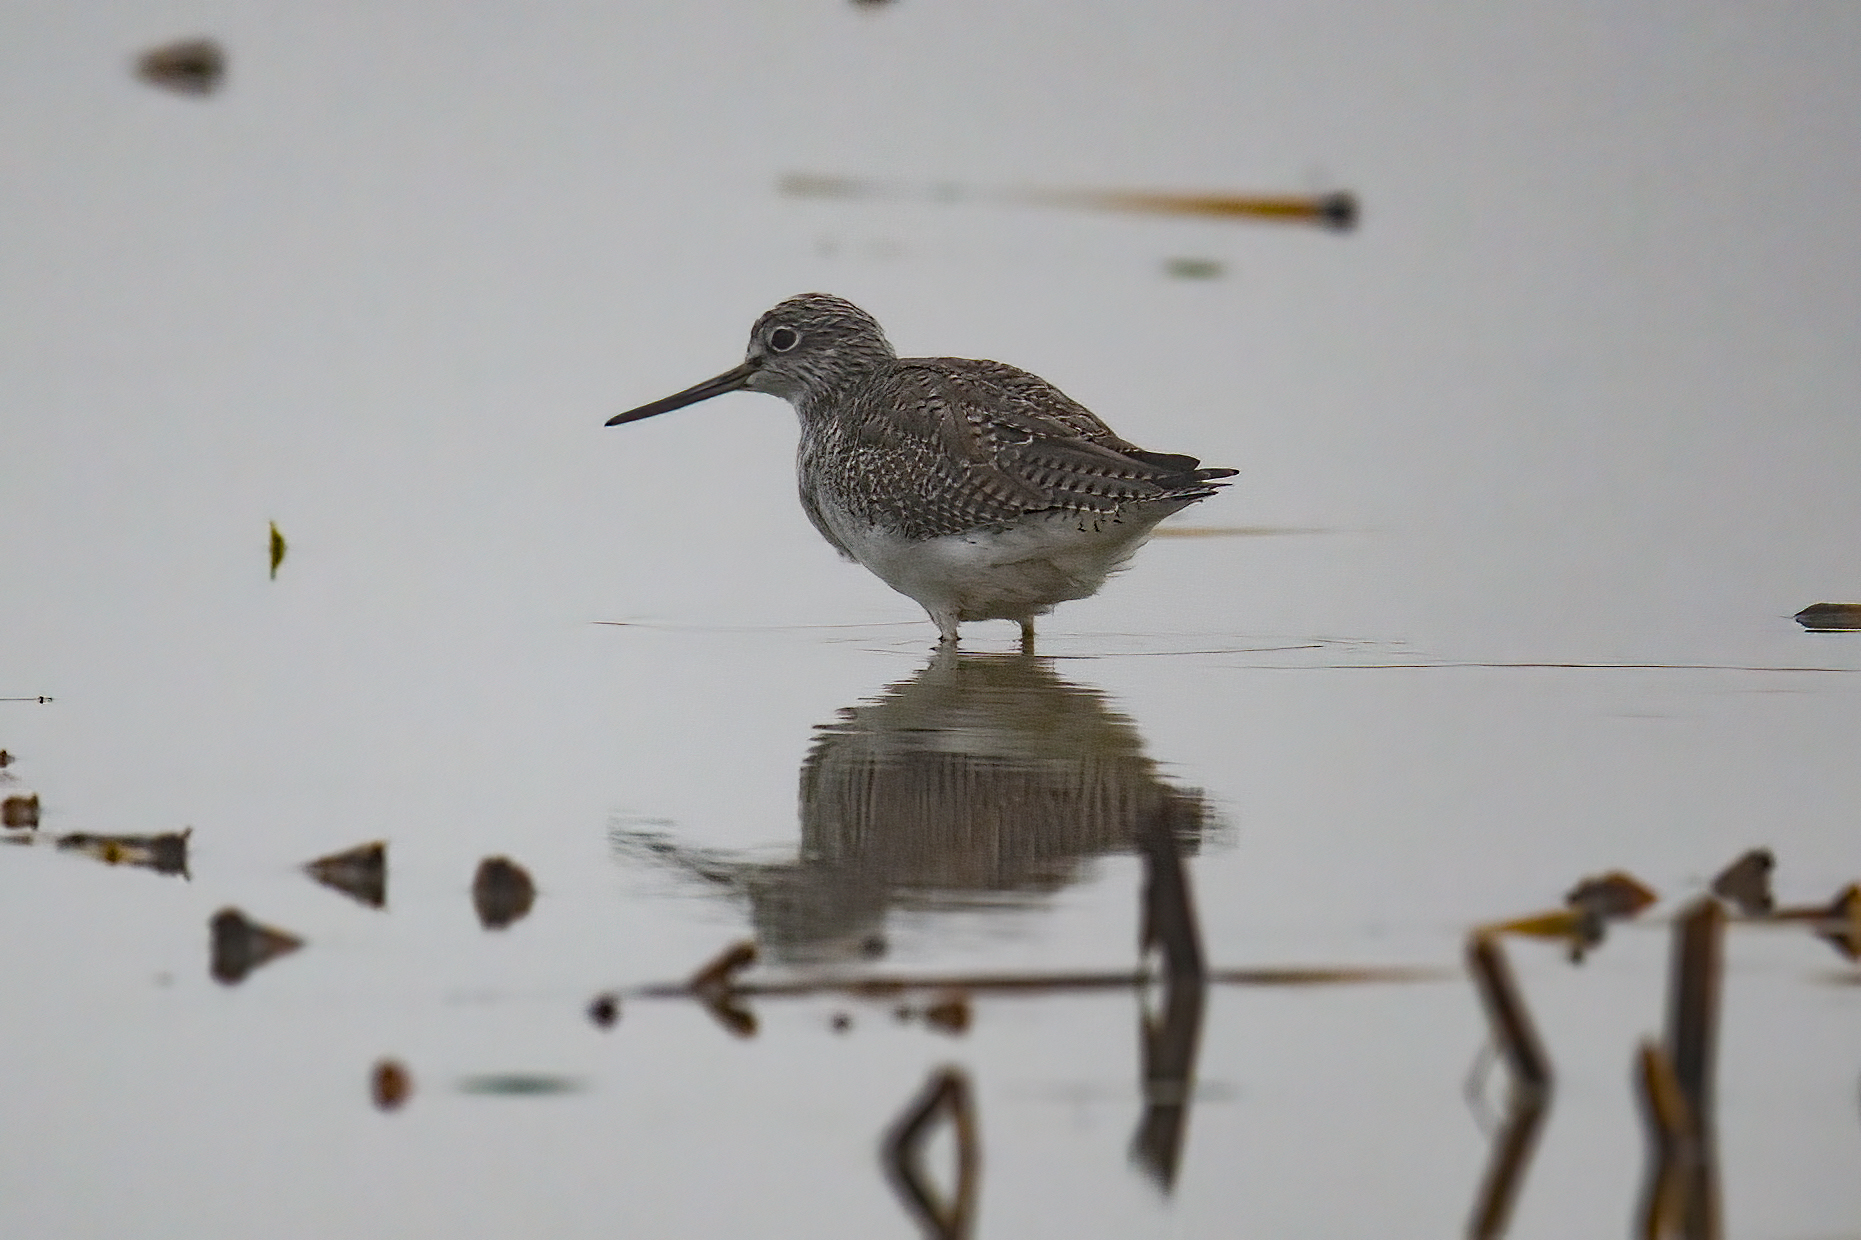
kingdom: Animalia
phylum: Chordata
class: Aves
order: Charadriiformes
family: Scolopacidae
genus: Tringa
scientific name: Tringa melanoleuca
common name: Greater yellowlegs
